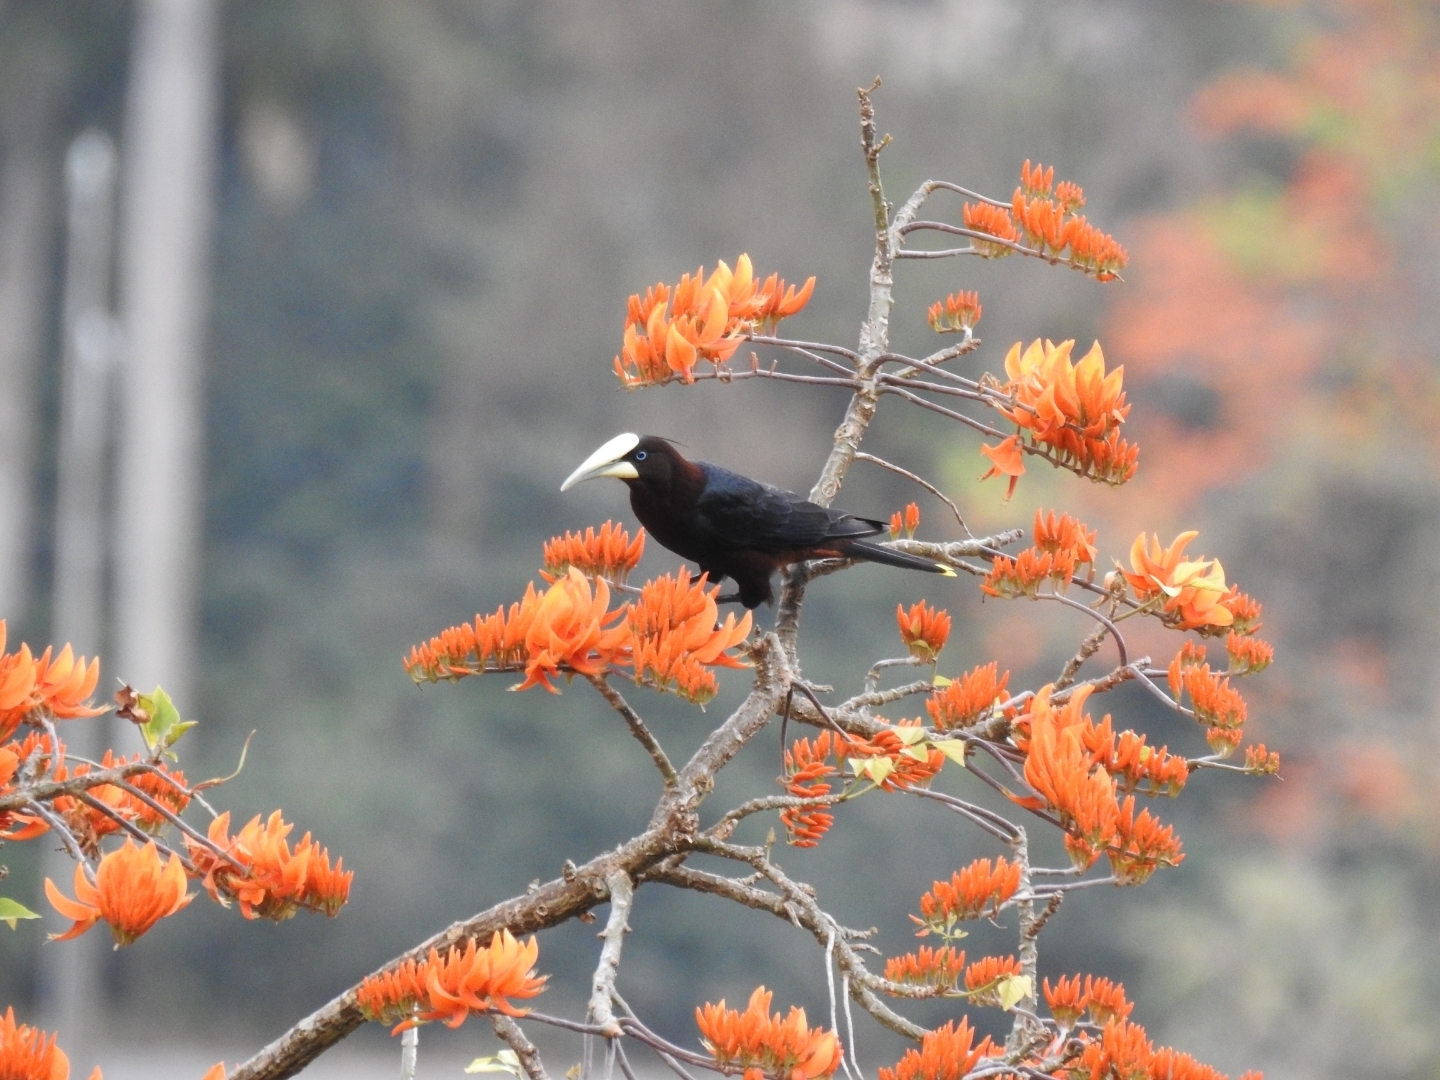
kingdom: Animalia
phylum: Chordata
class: Aves
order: Passeriformes
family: Icteridae
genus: Psarocolius
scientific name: Psarocolius wagleri
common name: Chestnut-headed oropendola
